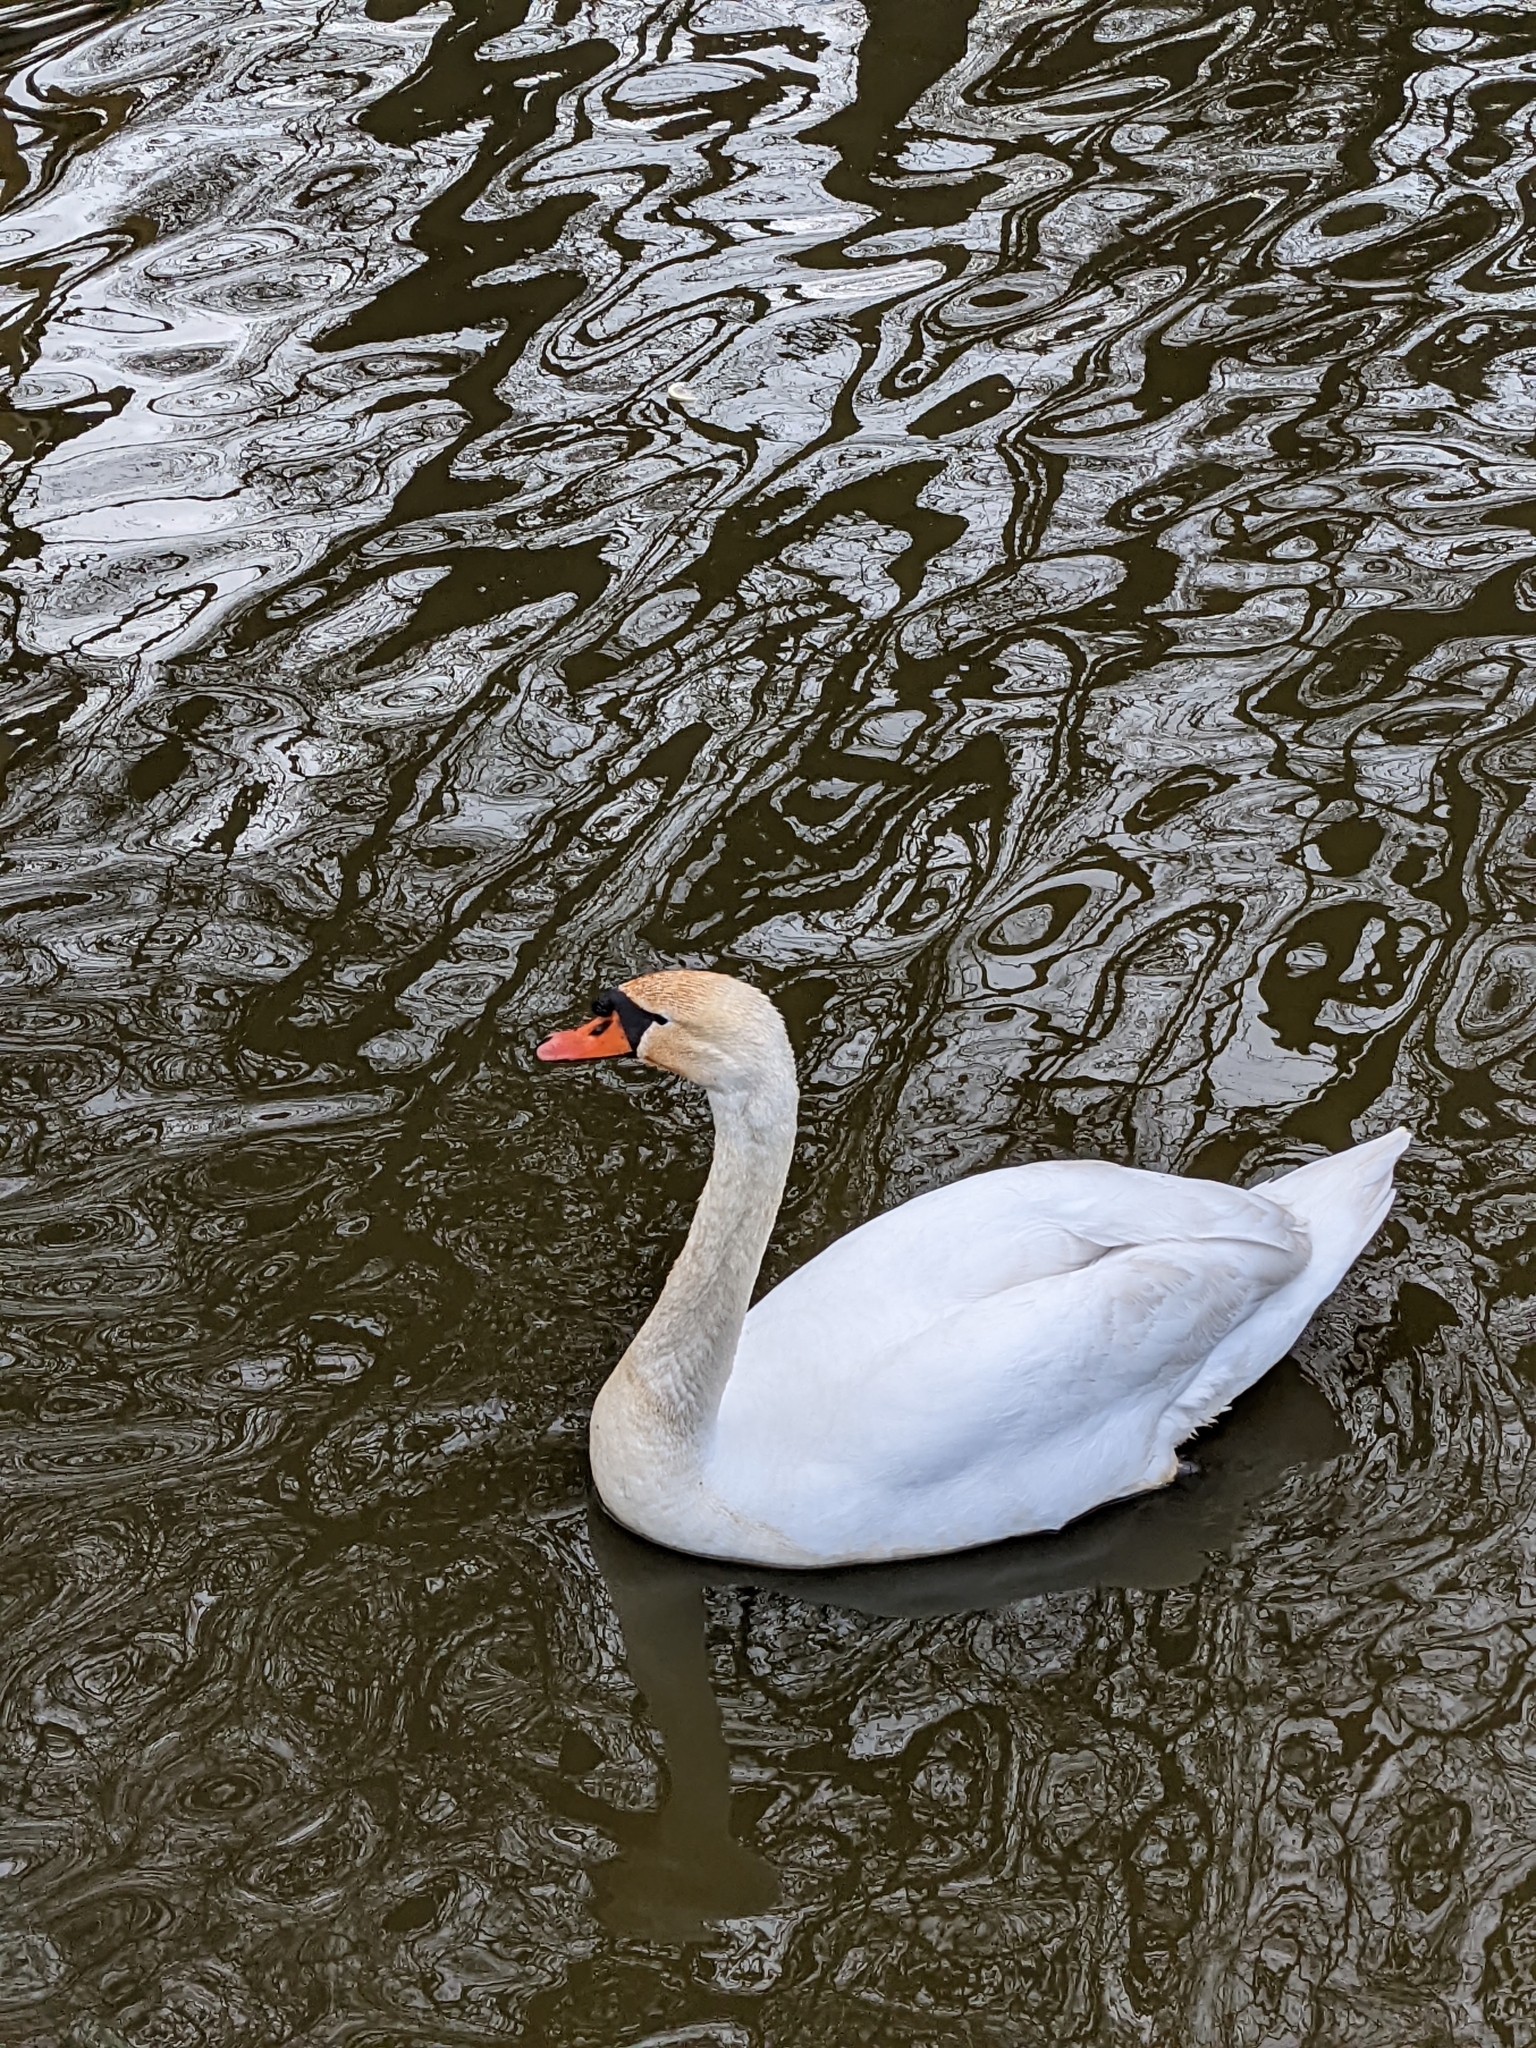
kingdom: Animalia
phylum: Chordata
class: Aves
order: Anseriformes
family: Anatidae
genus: Cygnus
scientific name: Cygnus olor
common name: Mute swan
